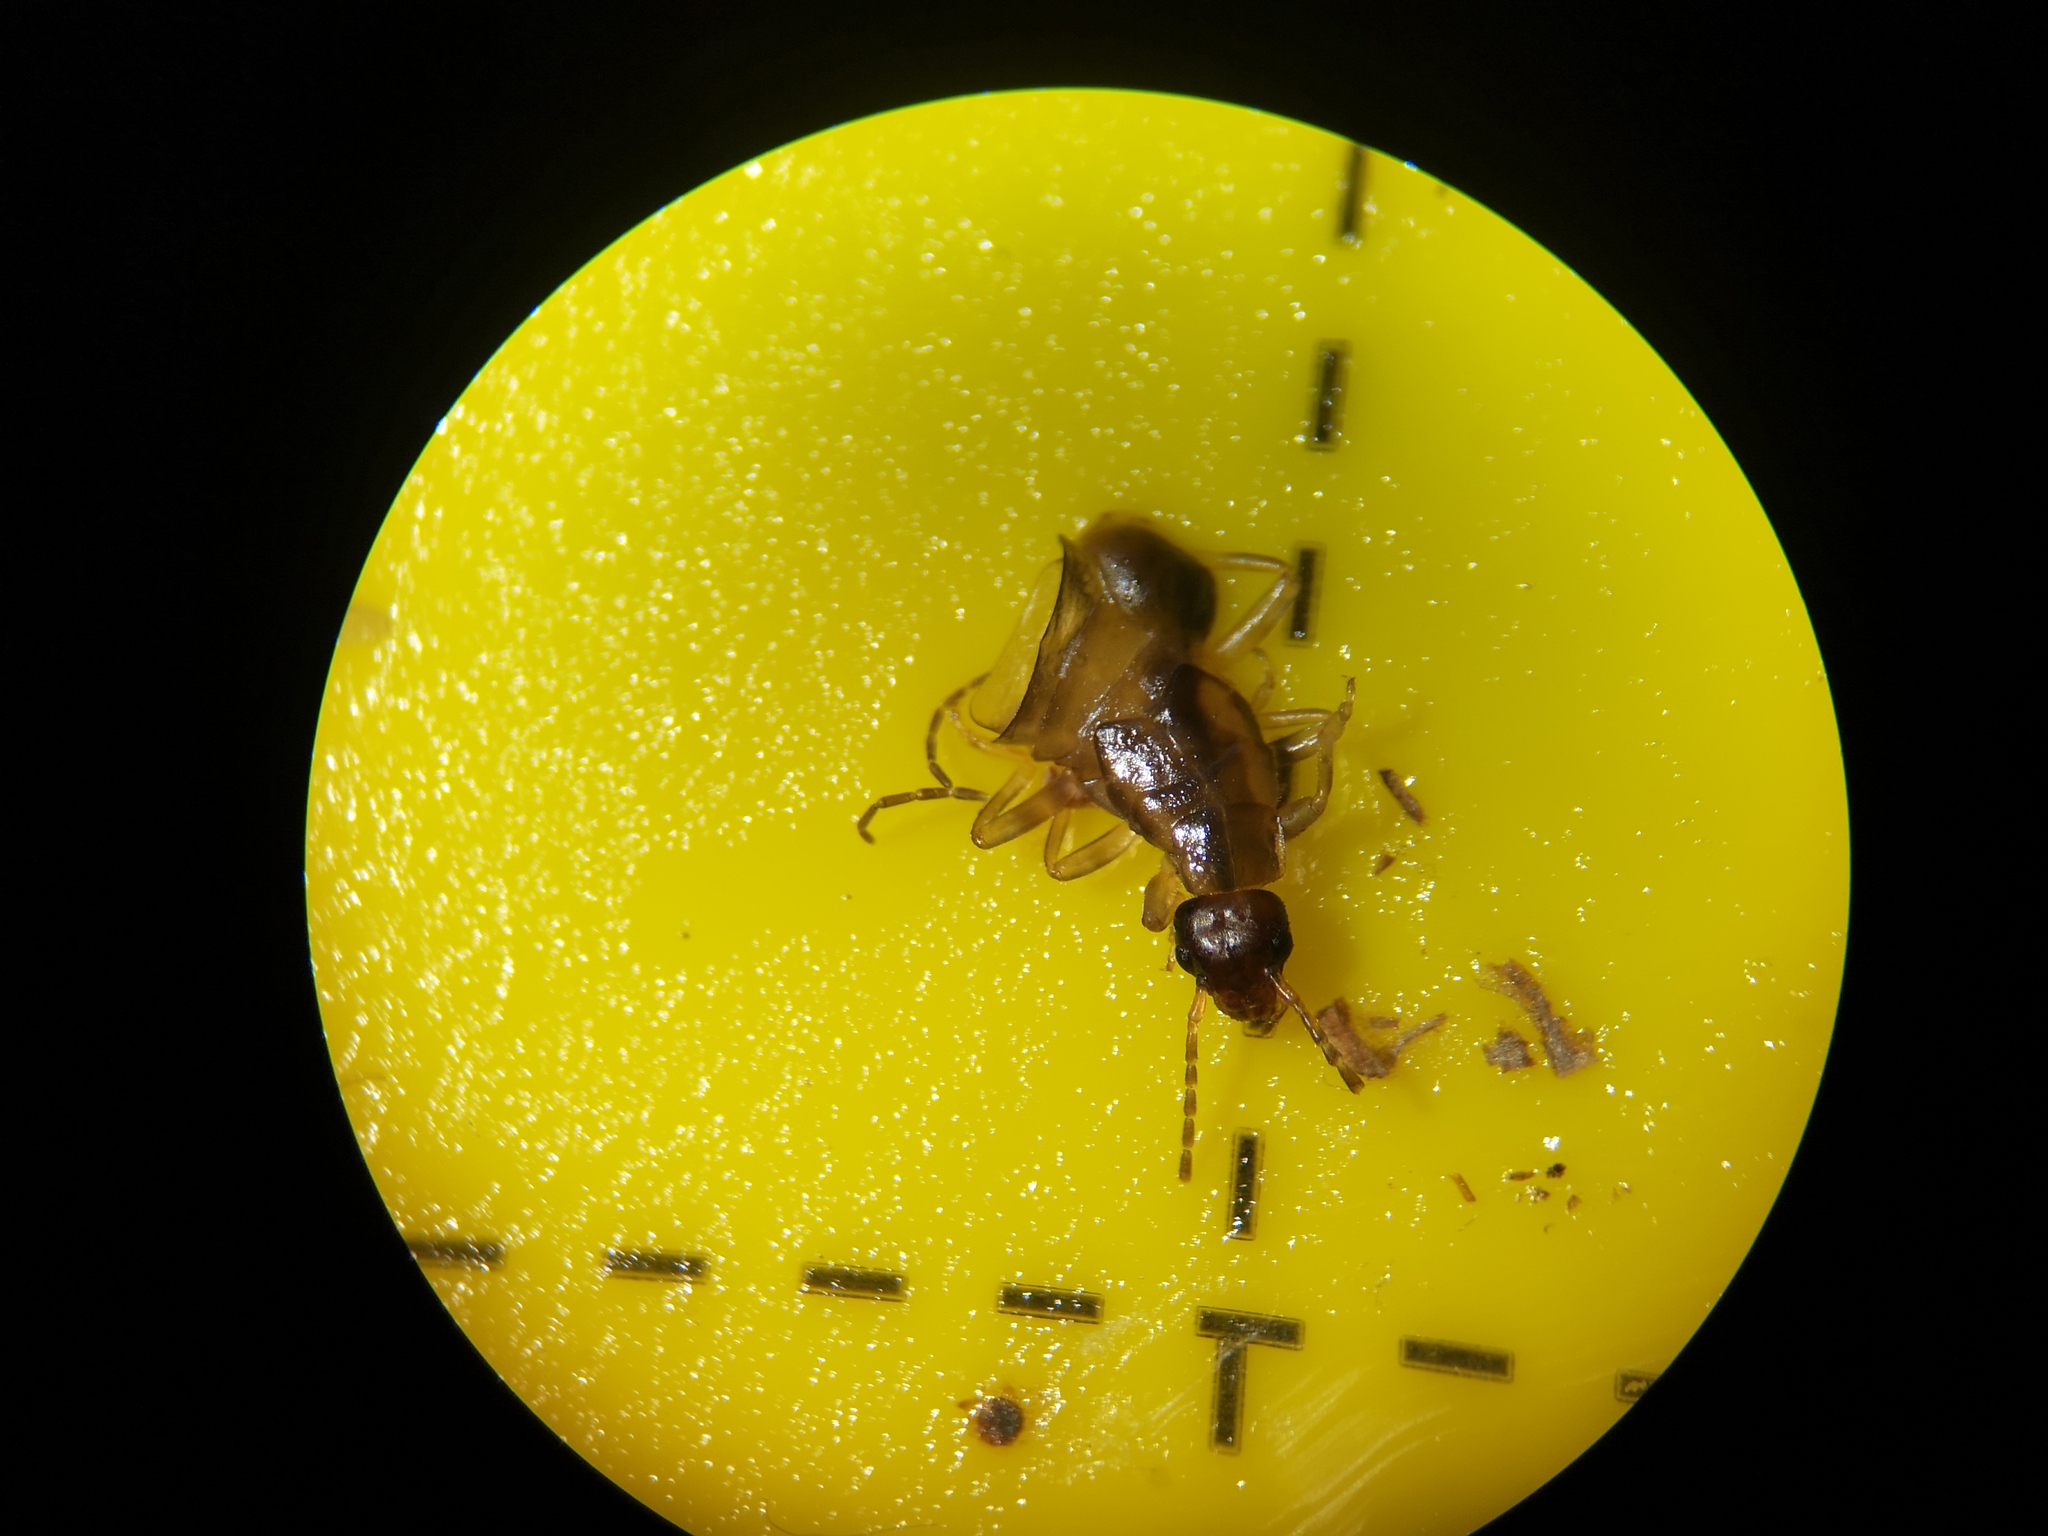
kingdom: Animalia
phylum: Arthropoda
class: Insecta
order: Dermaptera
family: Forficulidae
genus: Forficula
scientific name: Forficula
